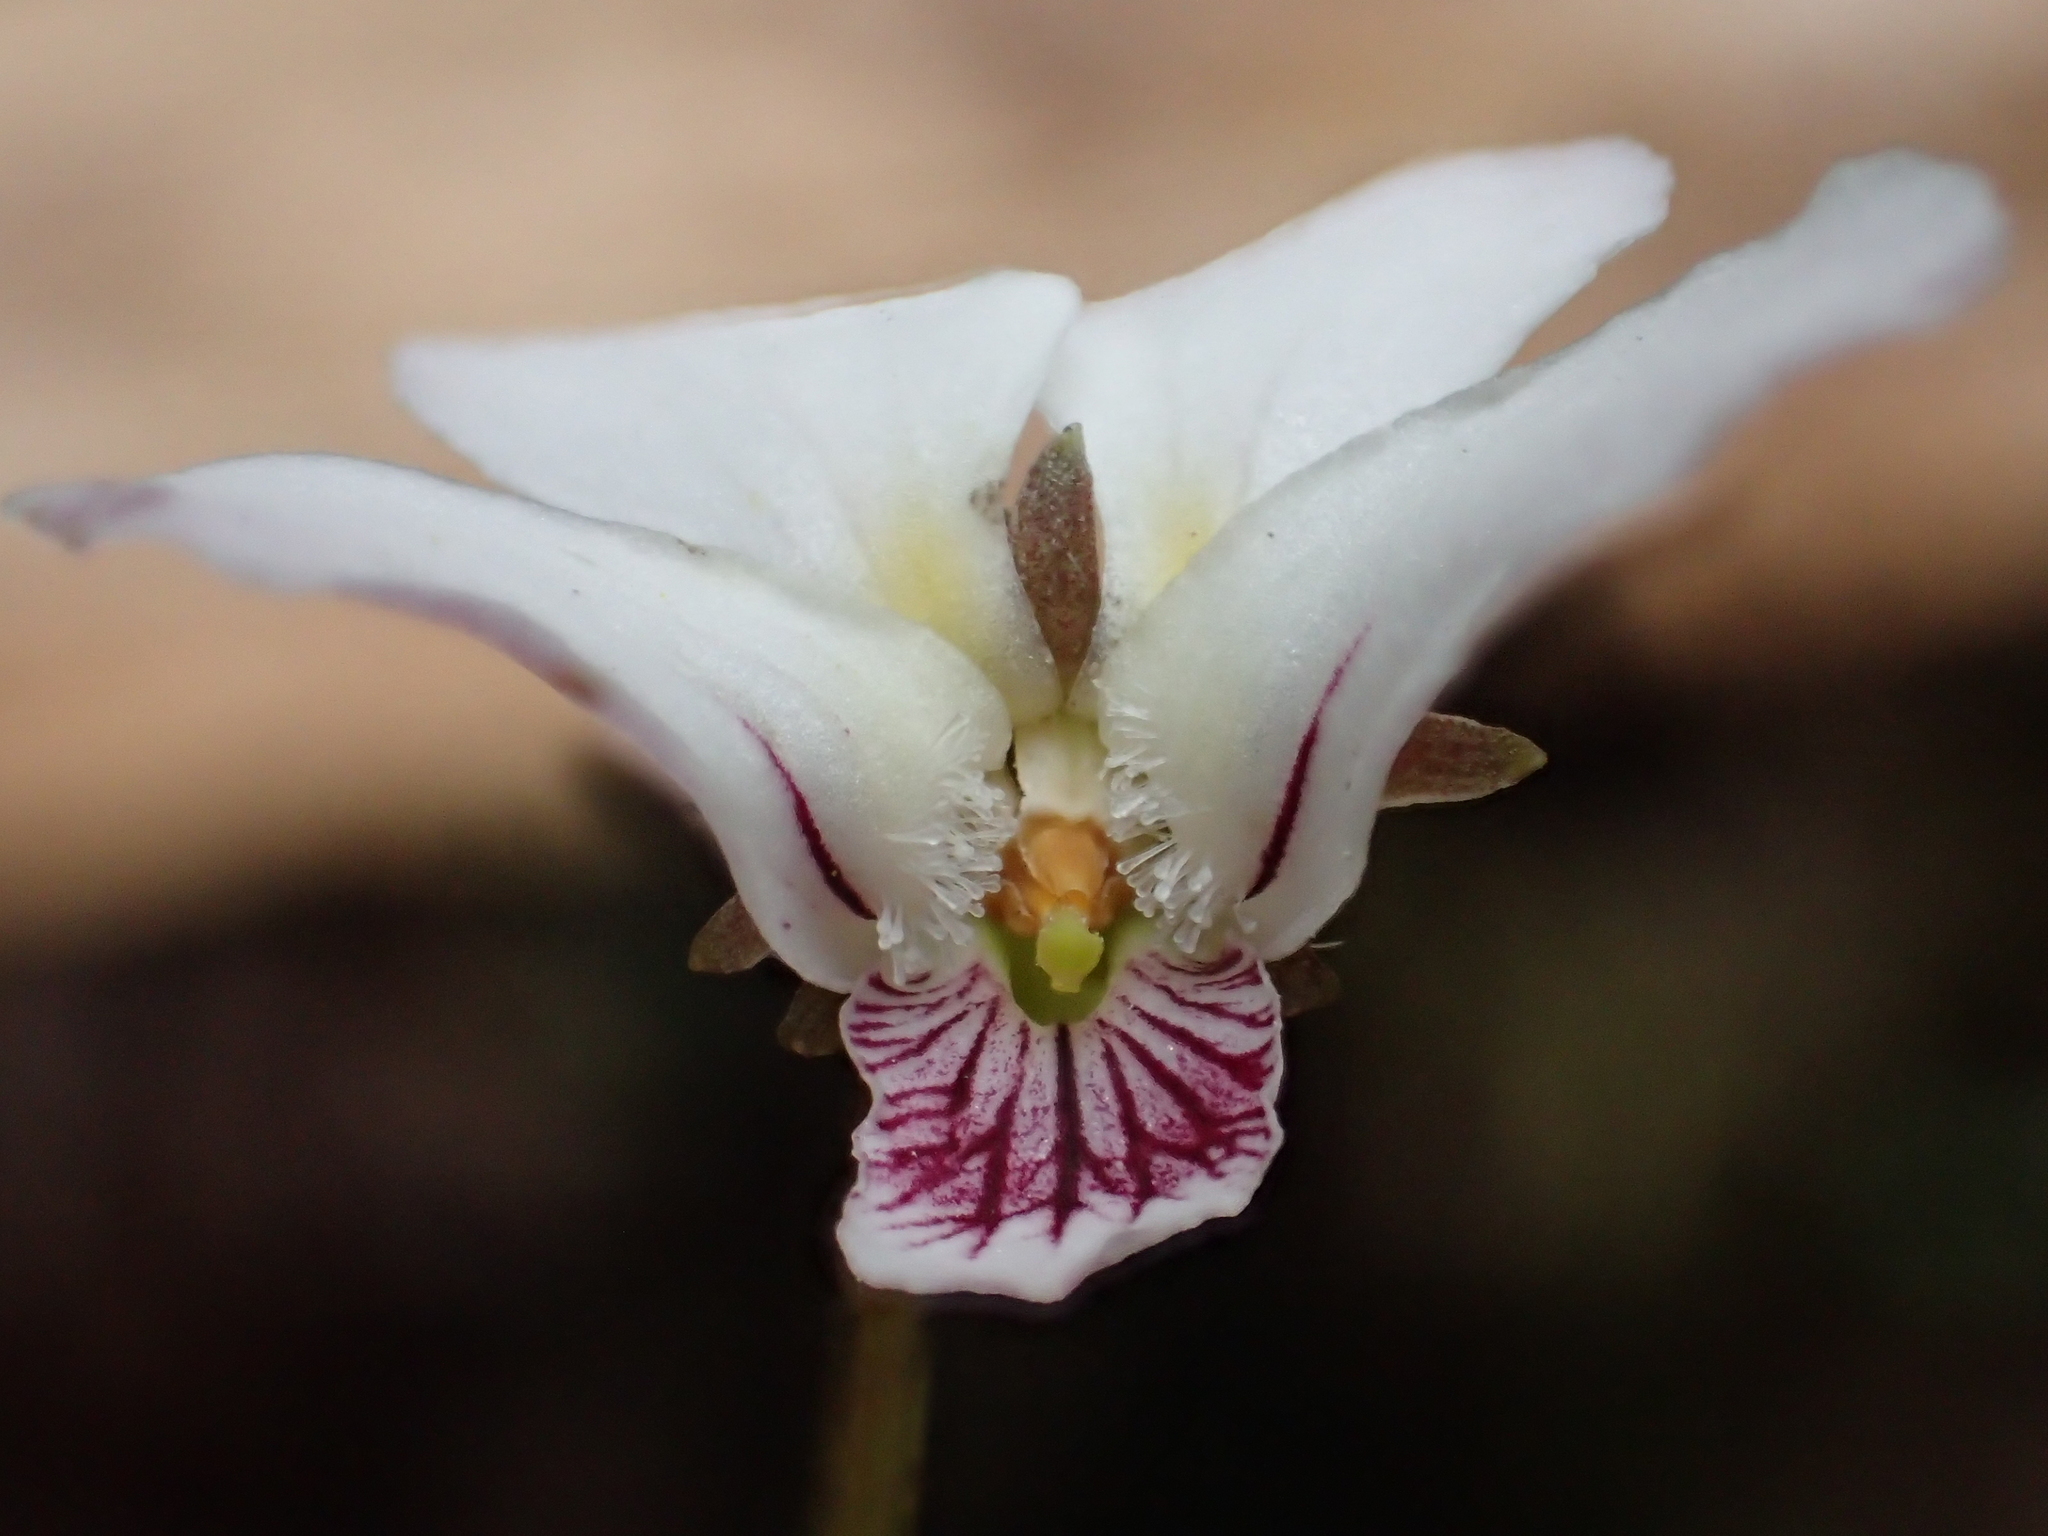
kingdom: Plantae
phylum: Tracheophyta
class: Magnoliopsida
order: Malpighiales
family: Violaceae
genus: Viola
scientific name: Viola adenothrix
